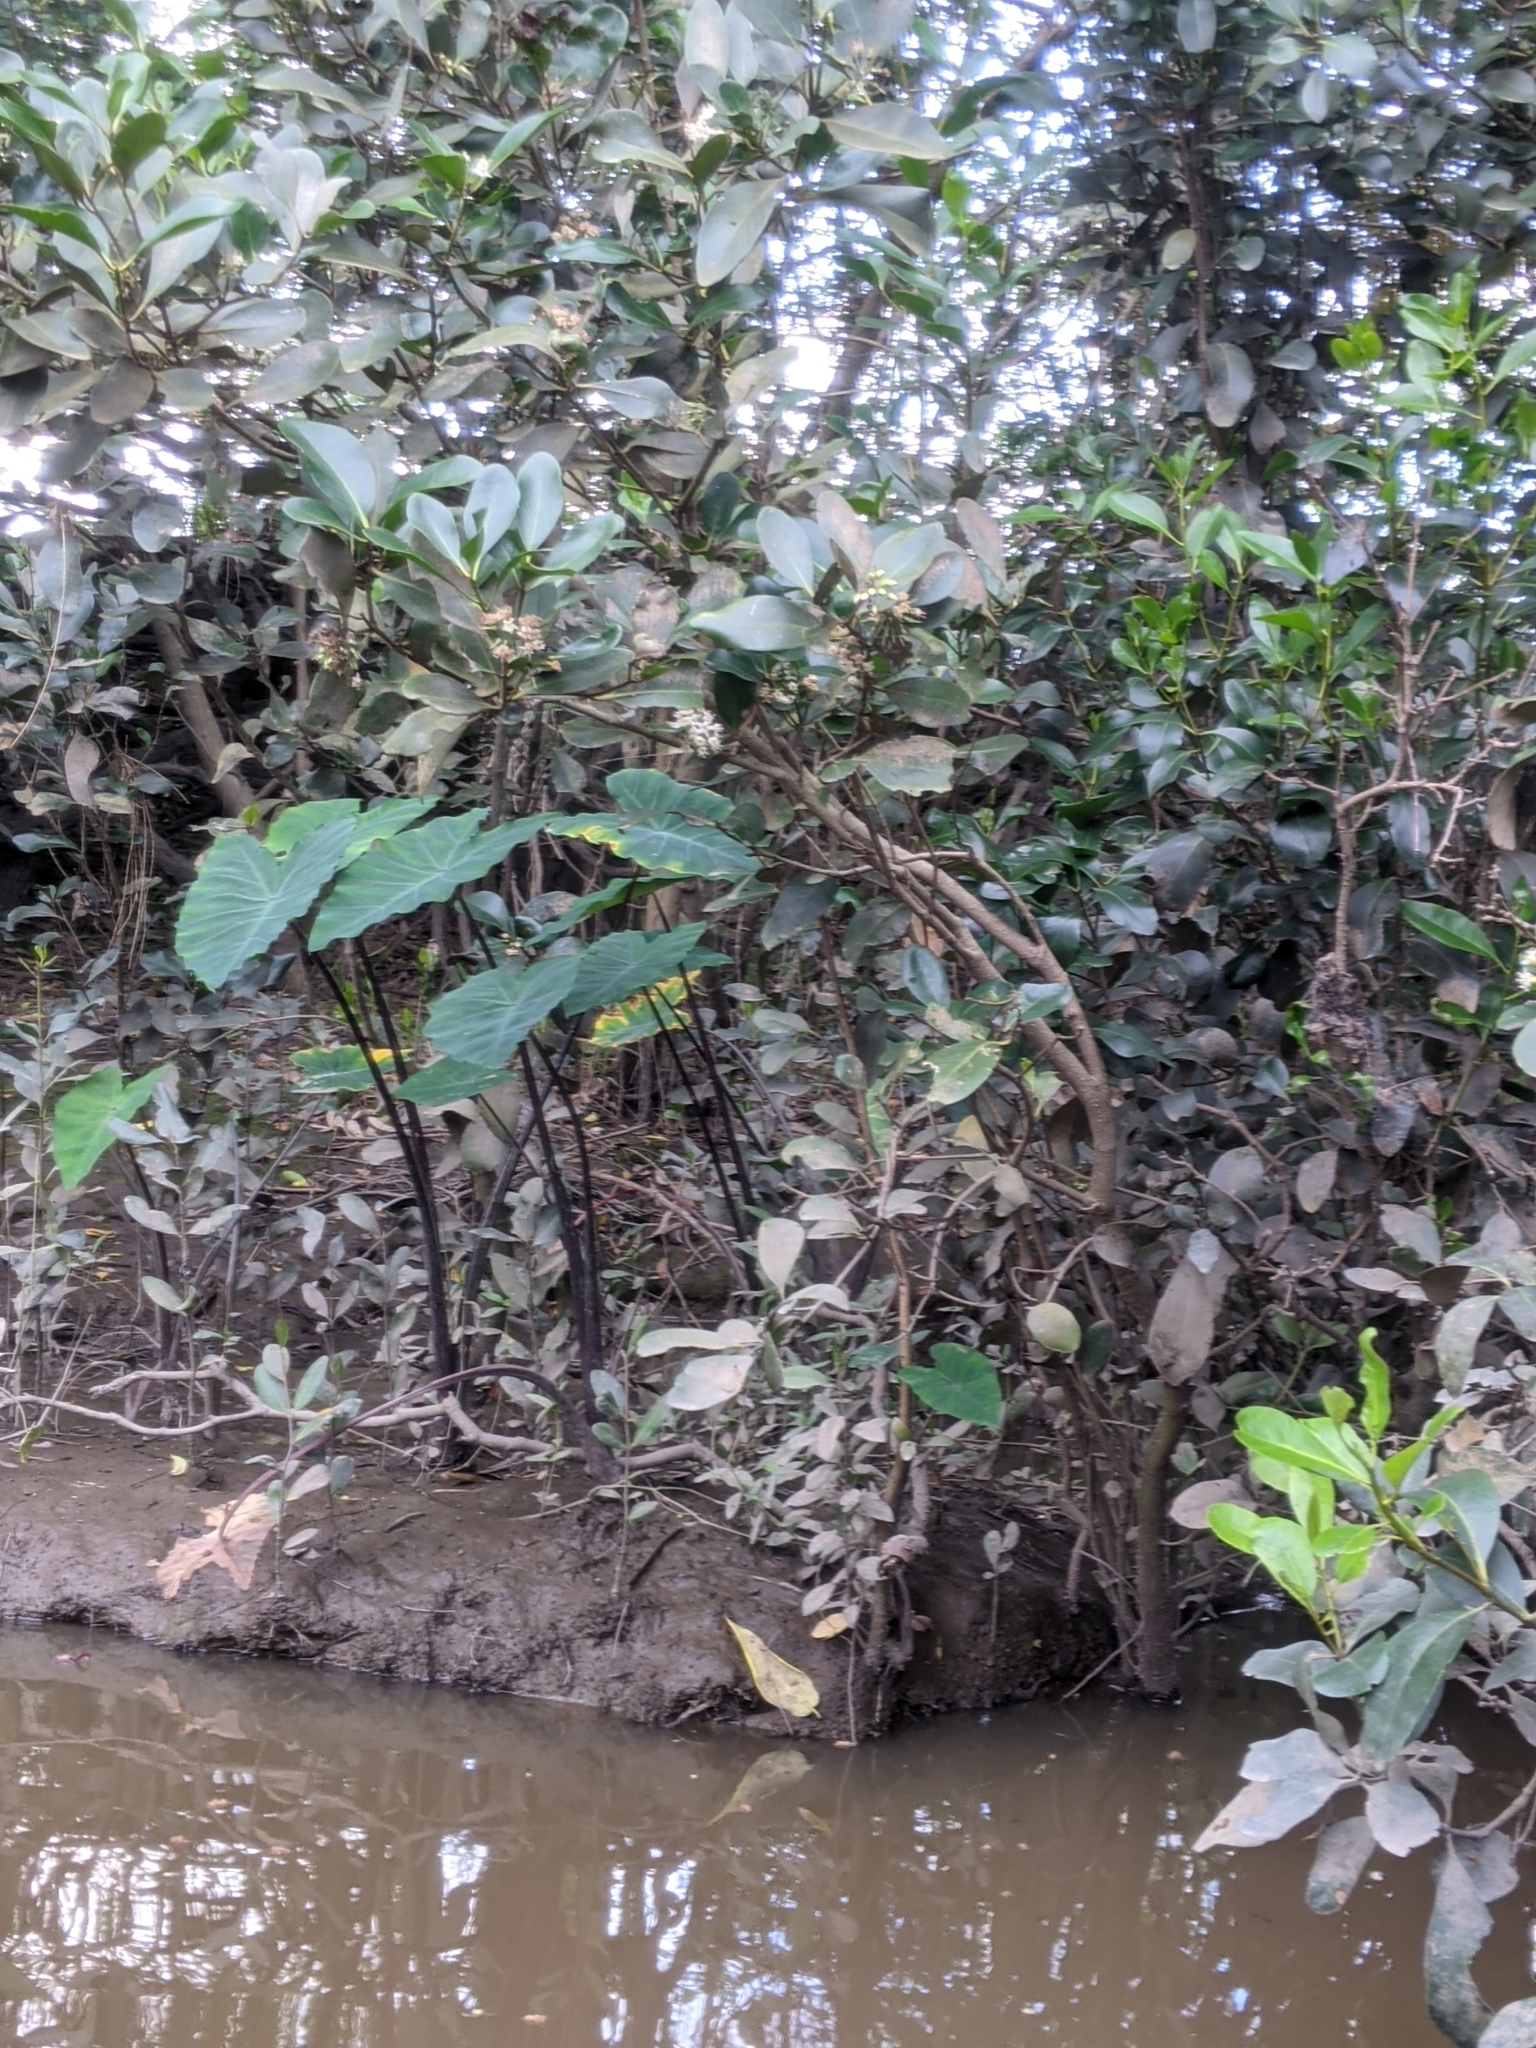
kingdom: Plantae
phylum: Tracheophyta
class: Liliopsida
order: Alismatales
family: Araceae
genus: Colocasia
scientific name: Colocasia esculenta
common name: Taro
